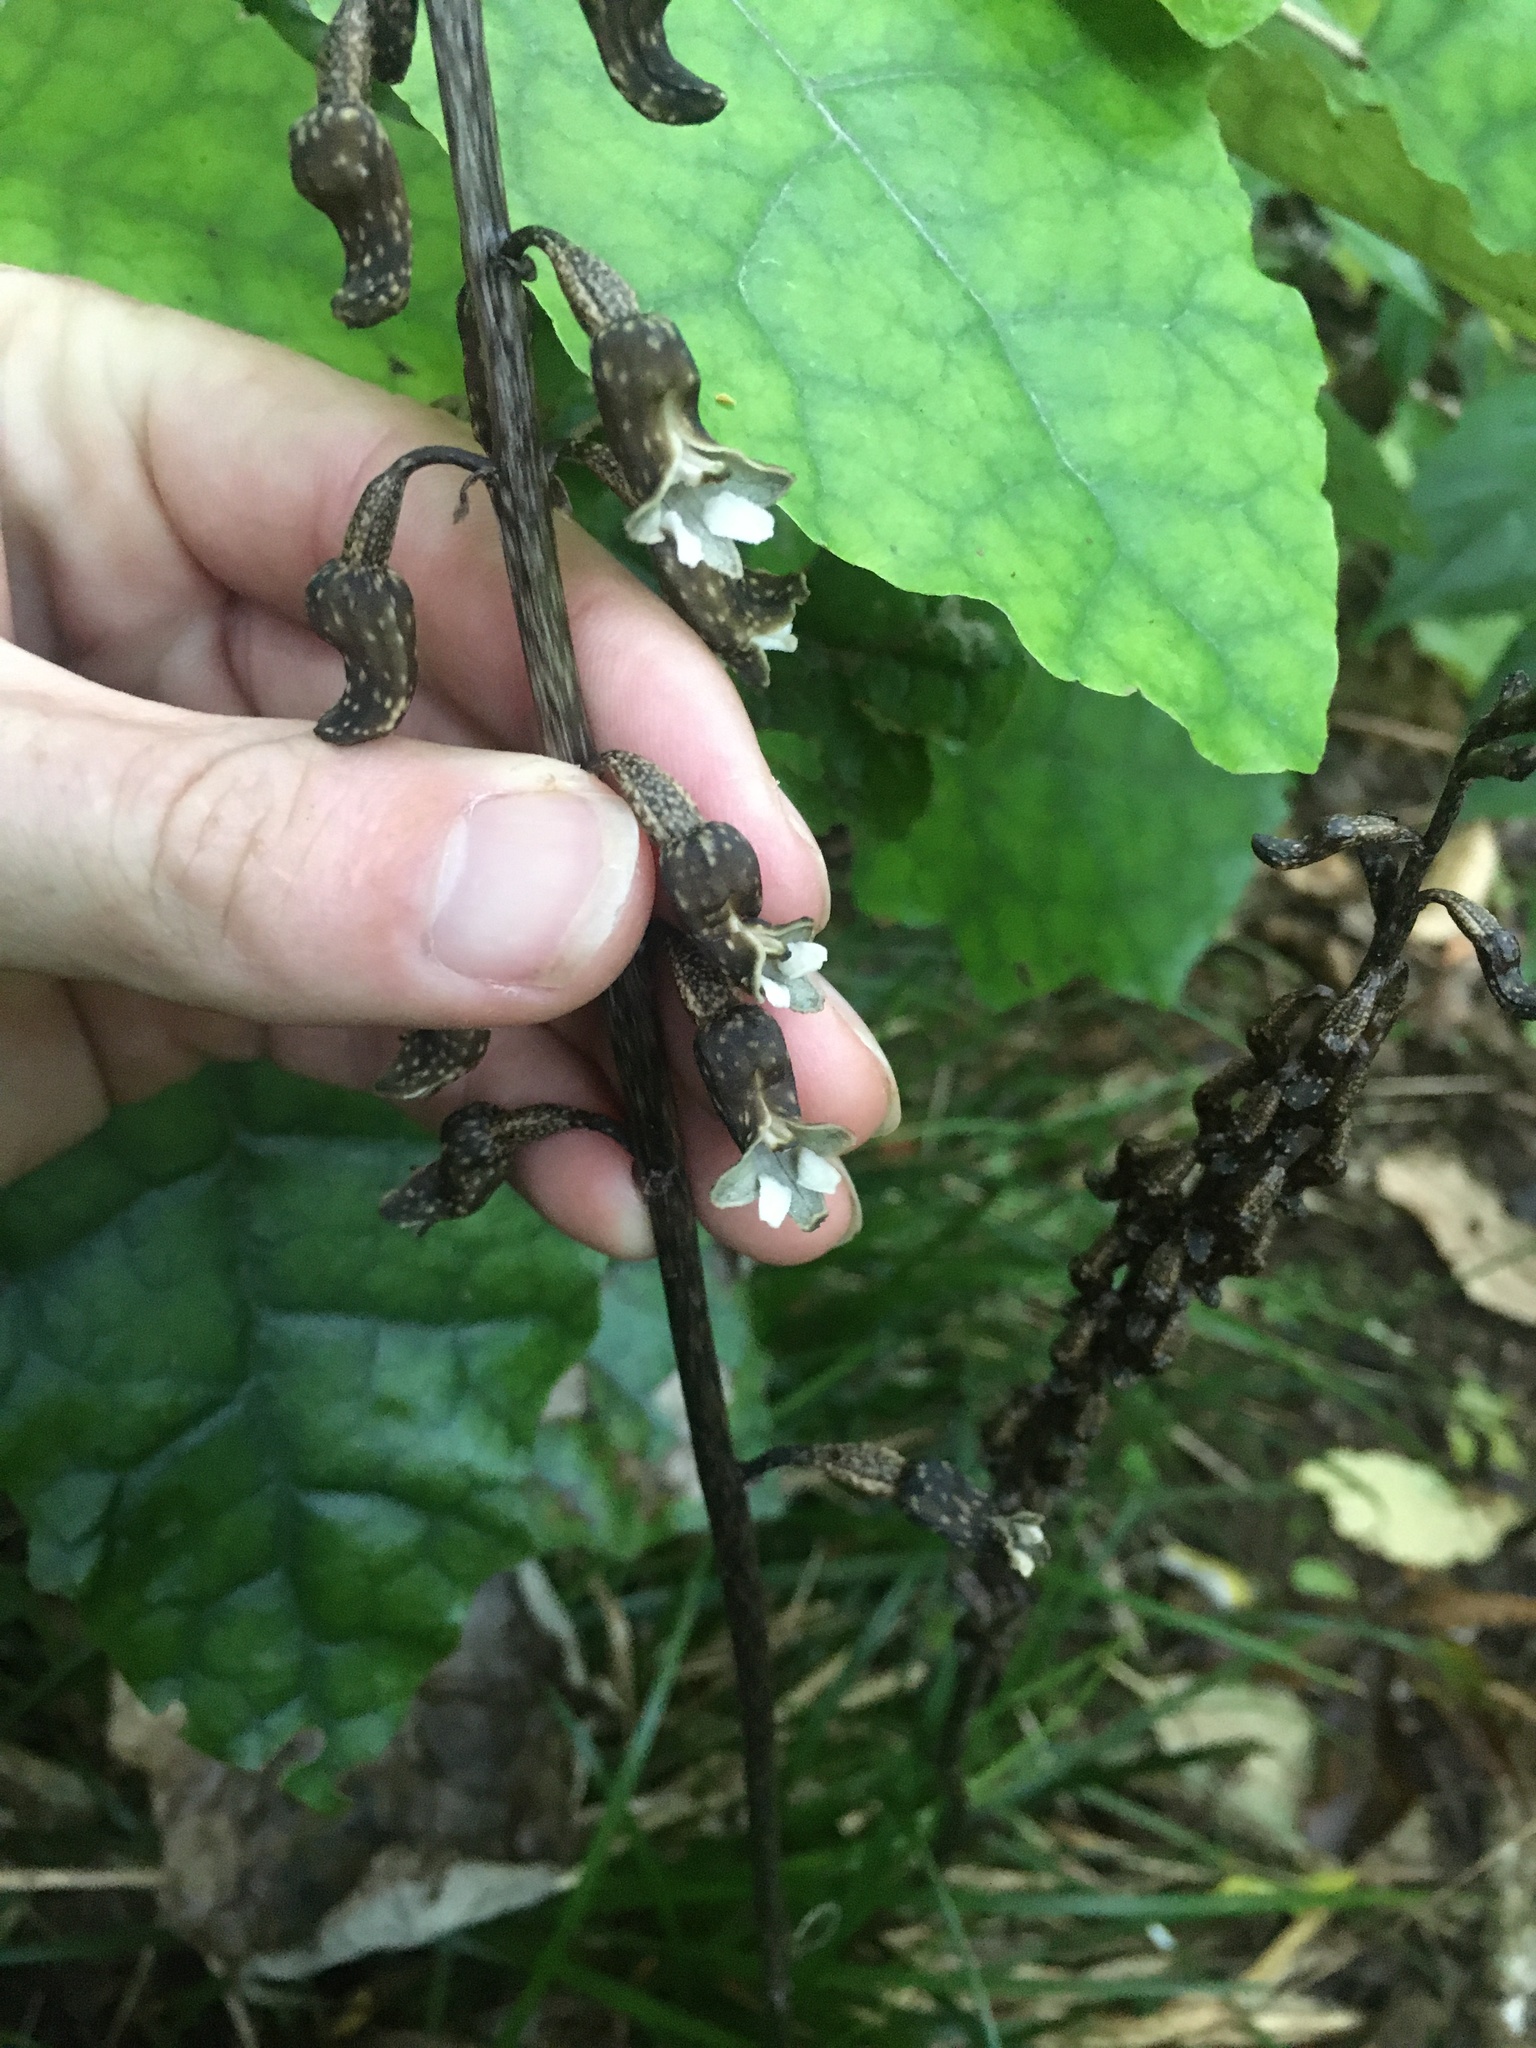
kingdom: Plantae
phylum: Tracheophyta
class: Liliopsida
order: Asparagales
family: Orchidaceae
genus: Gastrodia
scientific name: Gastrodia cunninghamii
